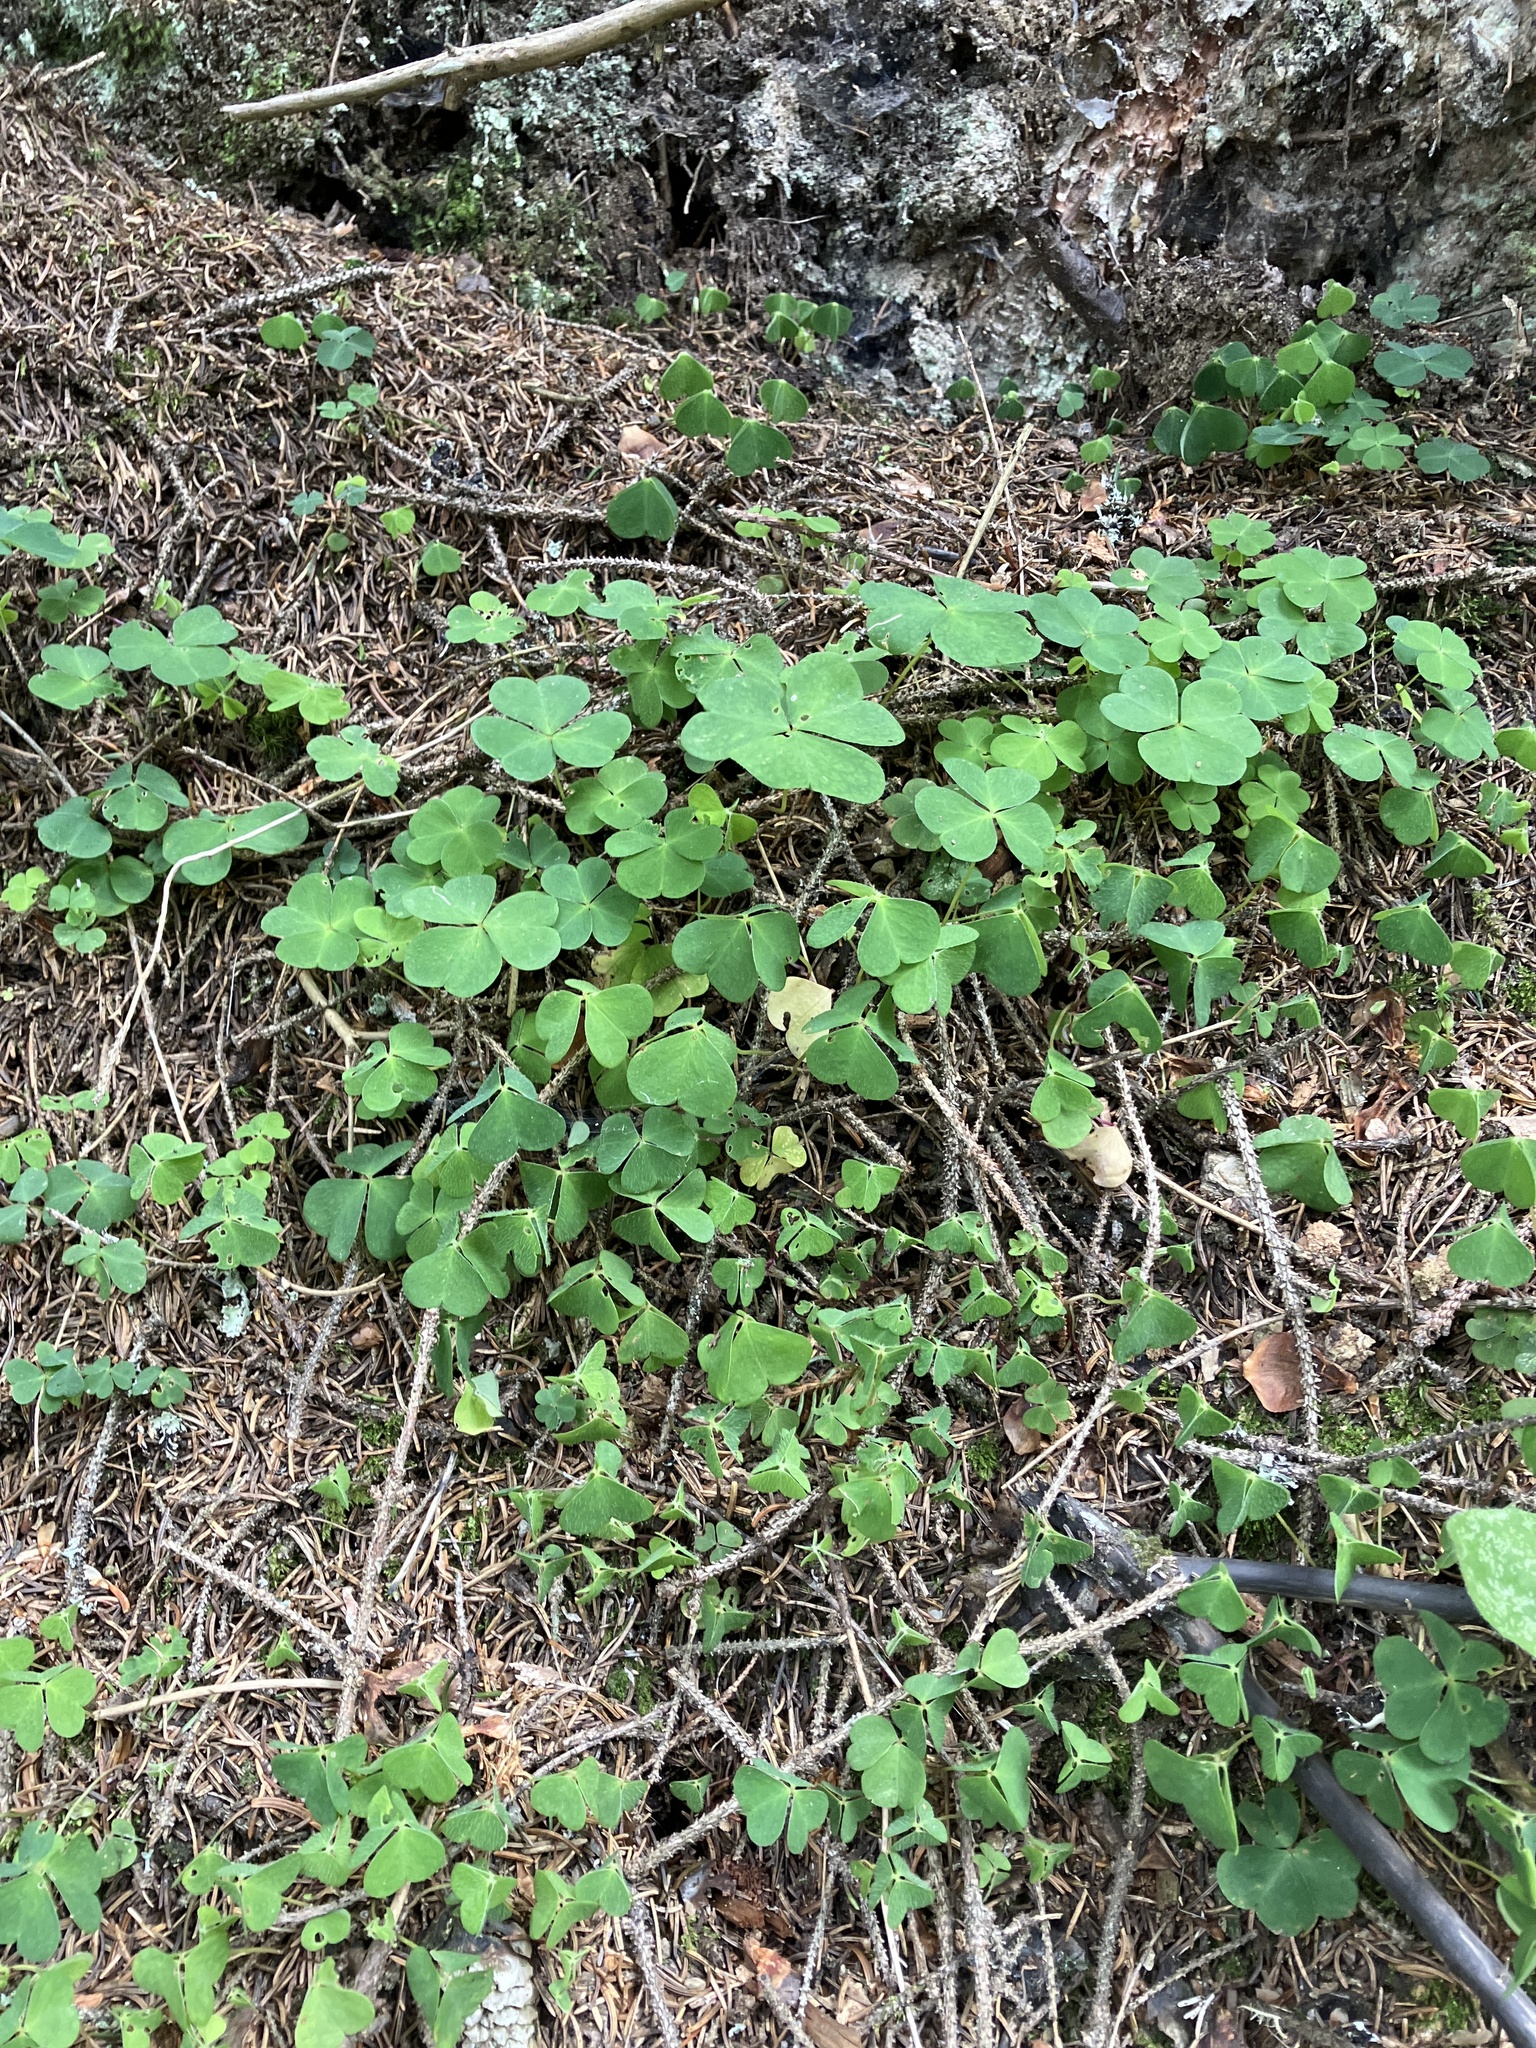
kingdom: Plantae
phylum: Tracheophyta
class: Magnoliopsida
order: Oxalidales
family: Oxalidaceae
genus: Oxalis
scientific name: Oxalis acetosella
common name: Wood-sorrel
